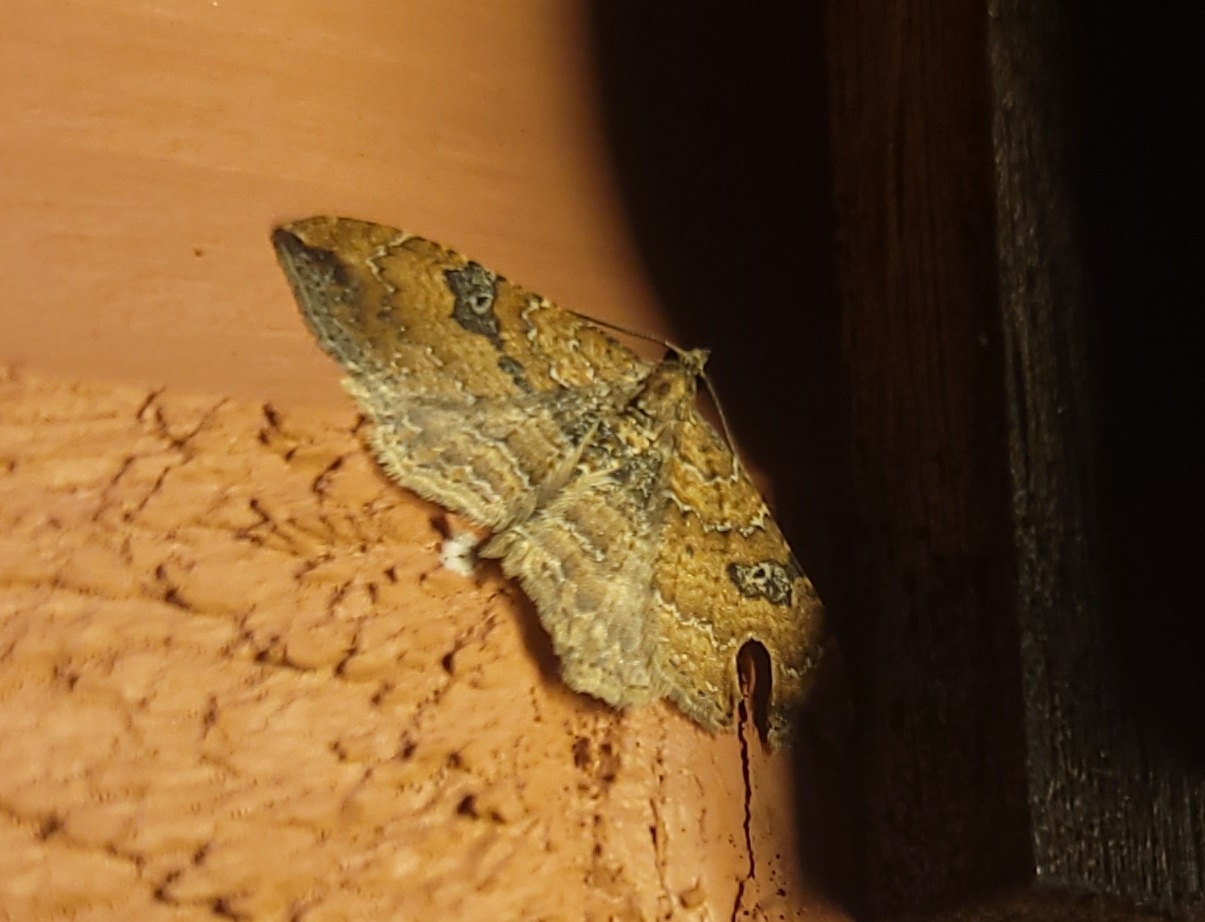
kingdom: Animalia
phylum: Arthropoda
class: Insecta
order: Lepidoptera
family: Geometridae
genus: Orthonama
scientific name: Orthonama obstipata
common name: The gem
